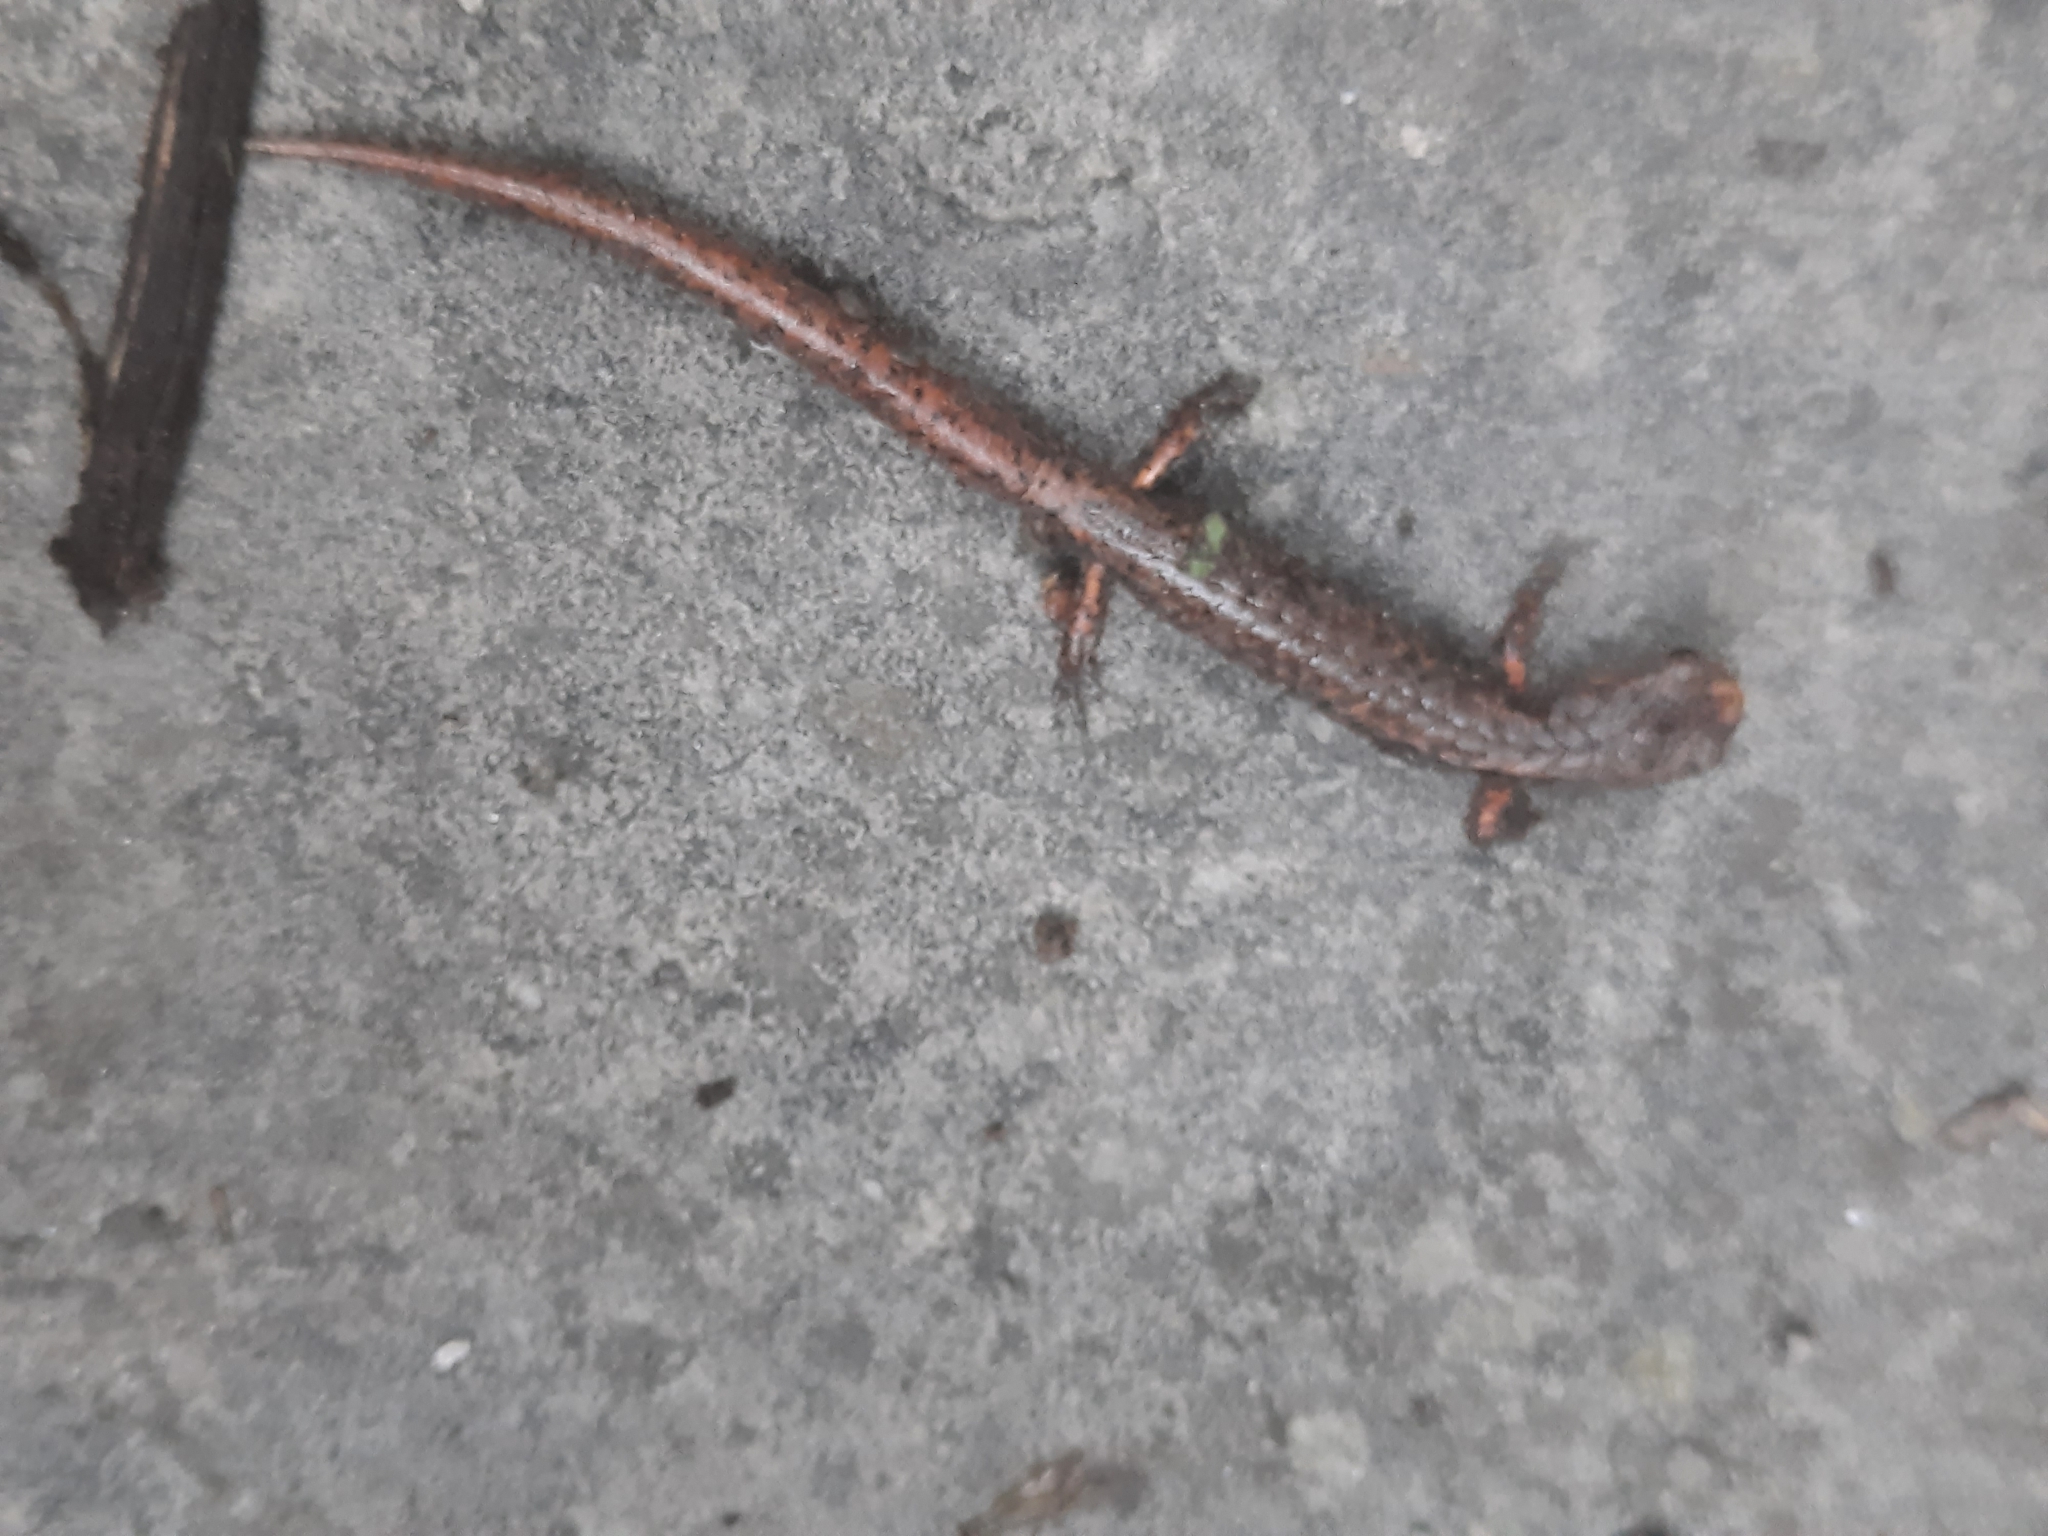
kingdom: Animalia
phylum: Chordata
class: Amphibia
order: Caudata
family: Plethodontidae
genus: Hemidactylium
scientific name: Hemidactylium scutatum
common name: Four-toed salamander
